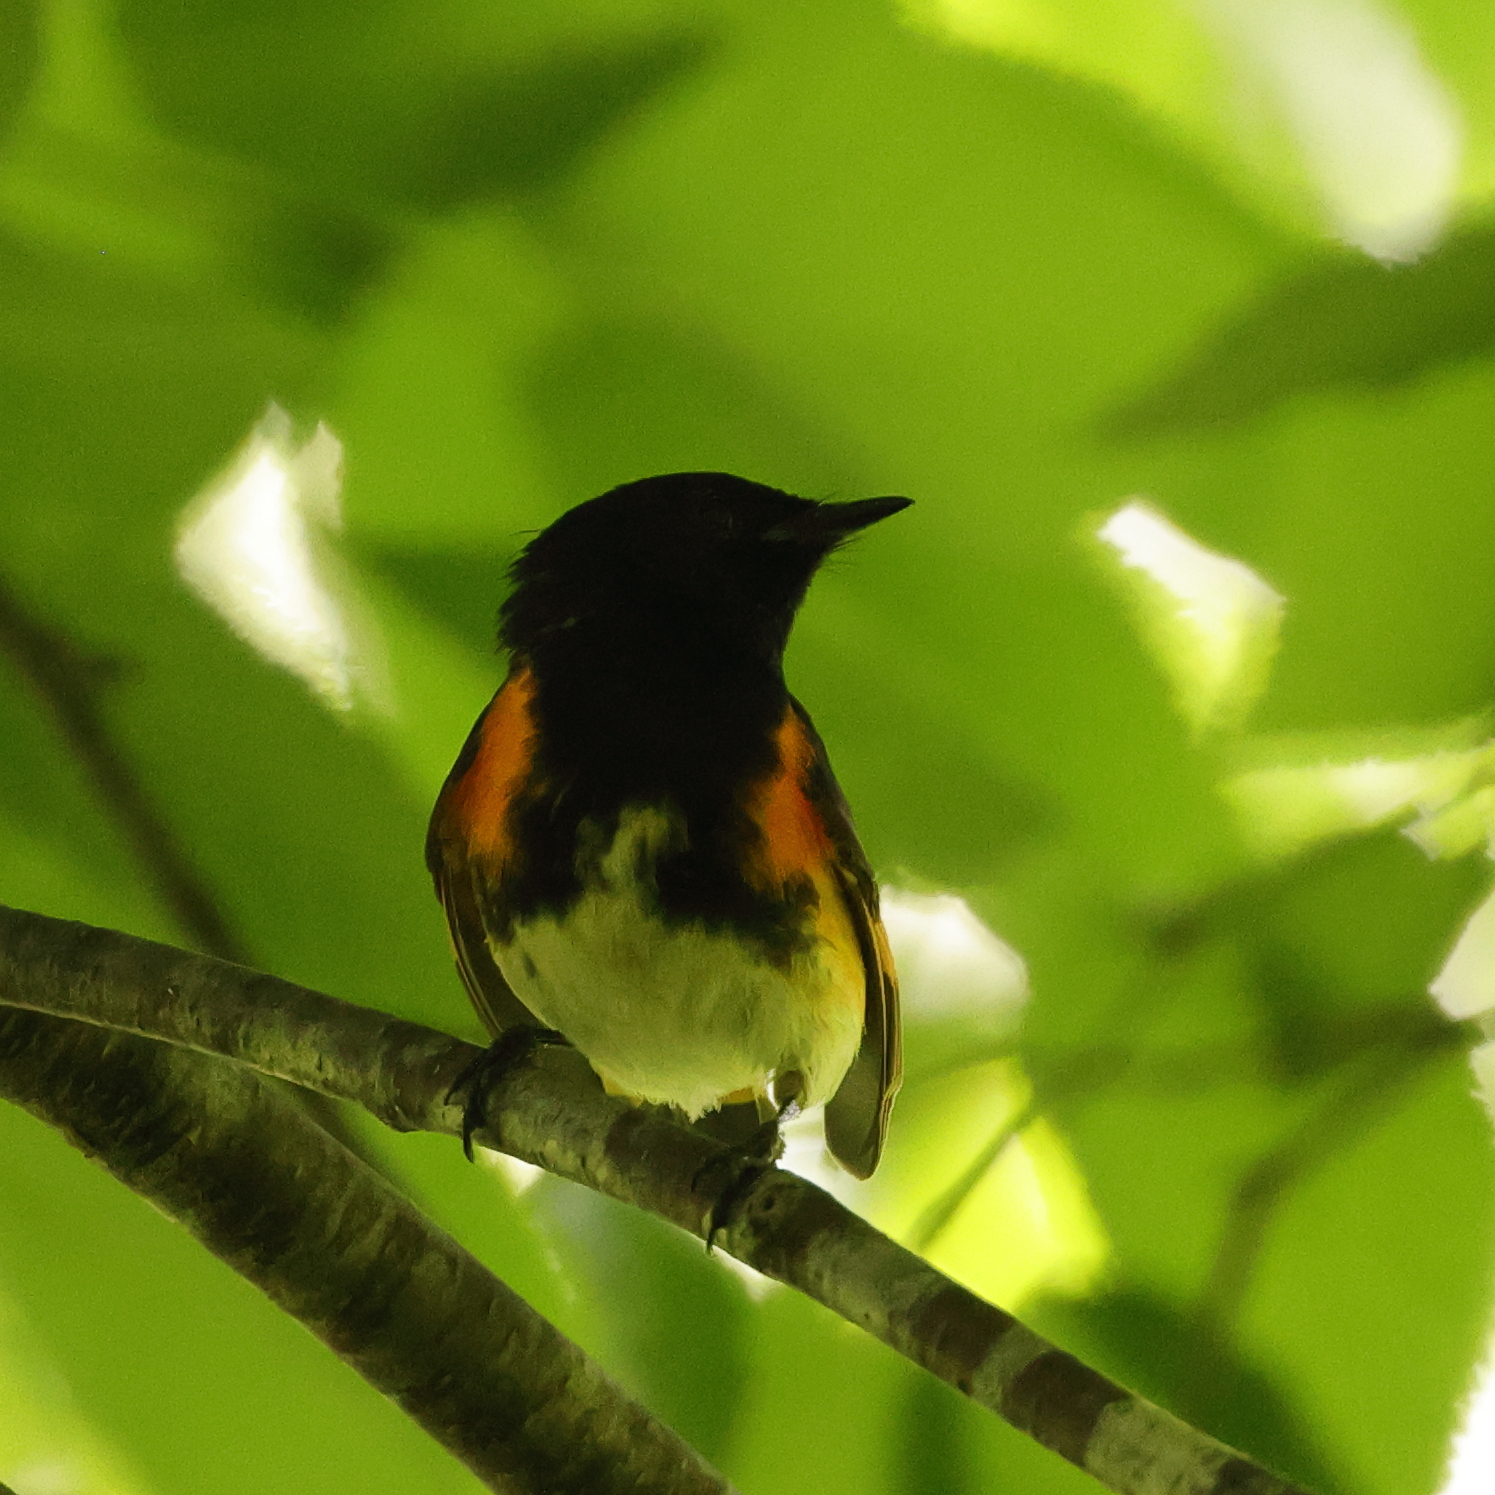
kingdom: Animalia
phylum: Chordata
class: Aves
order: Passeriformes
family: Parulidae
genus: Setophaga
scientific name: Setophaga ruticilla
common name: American redstart
